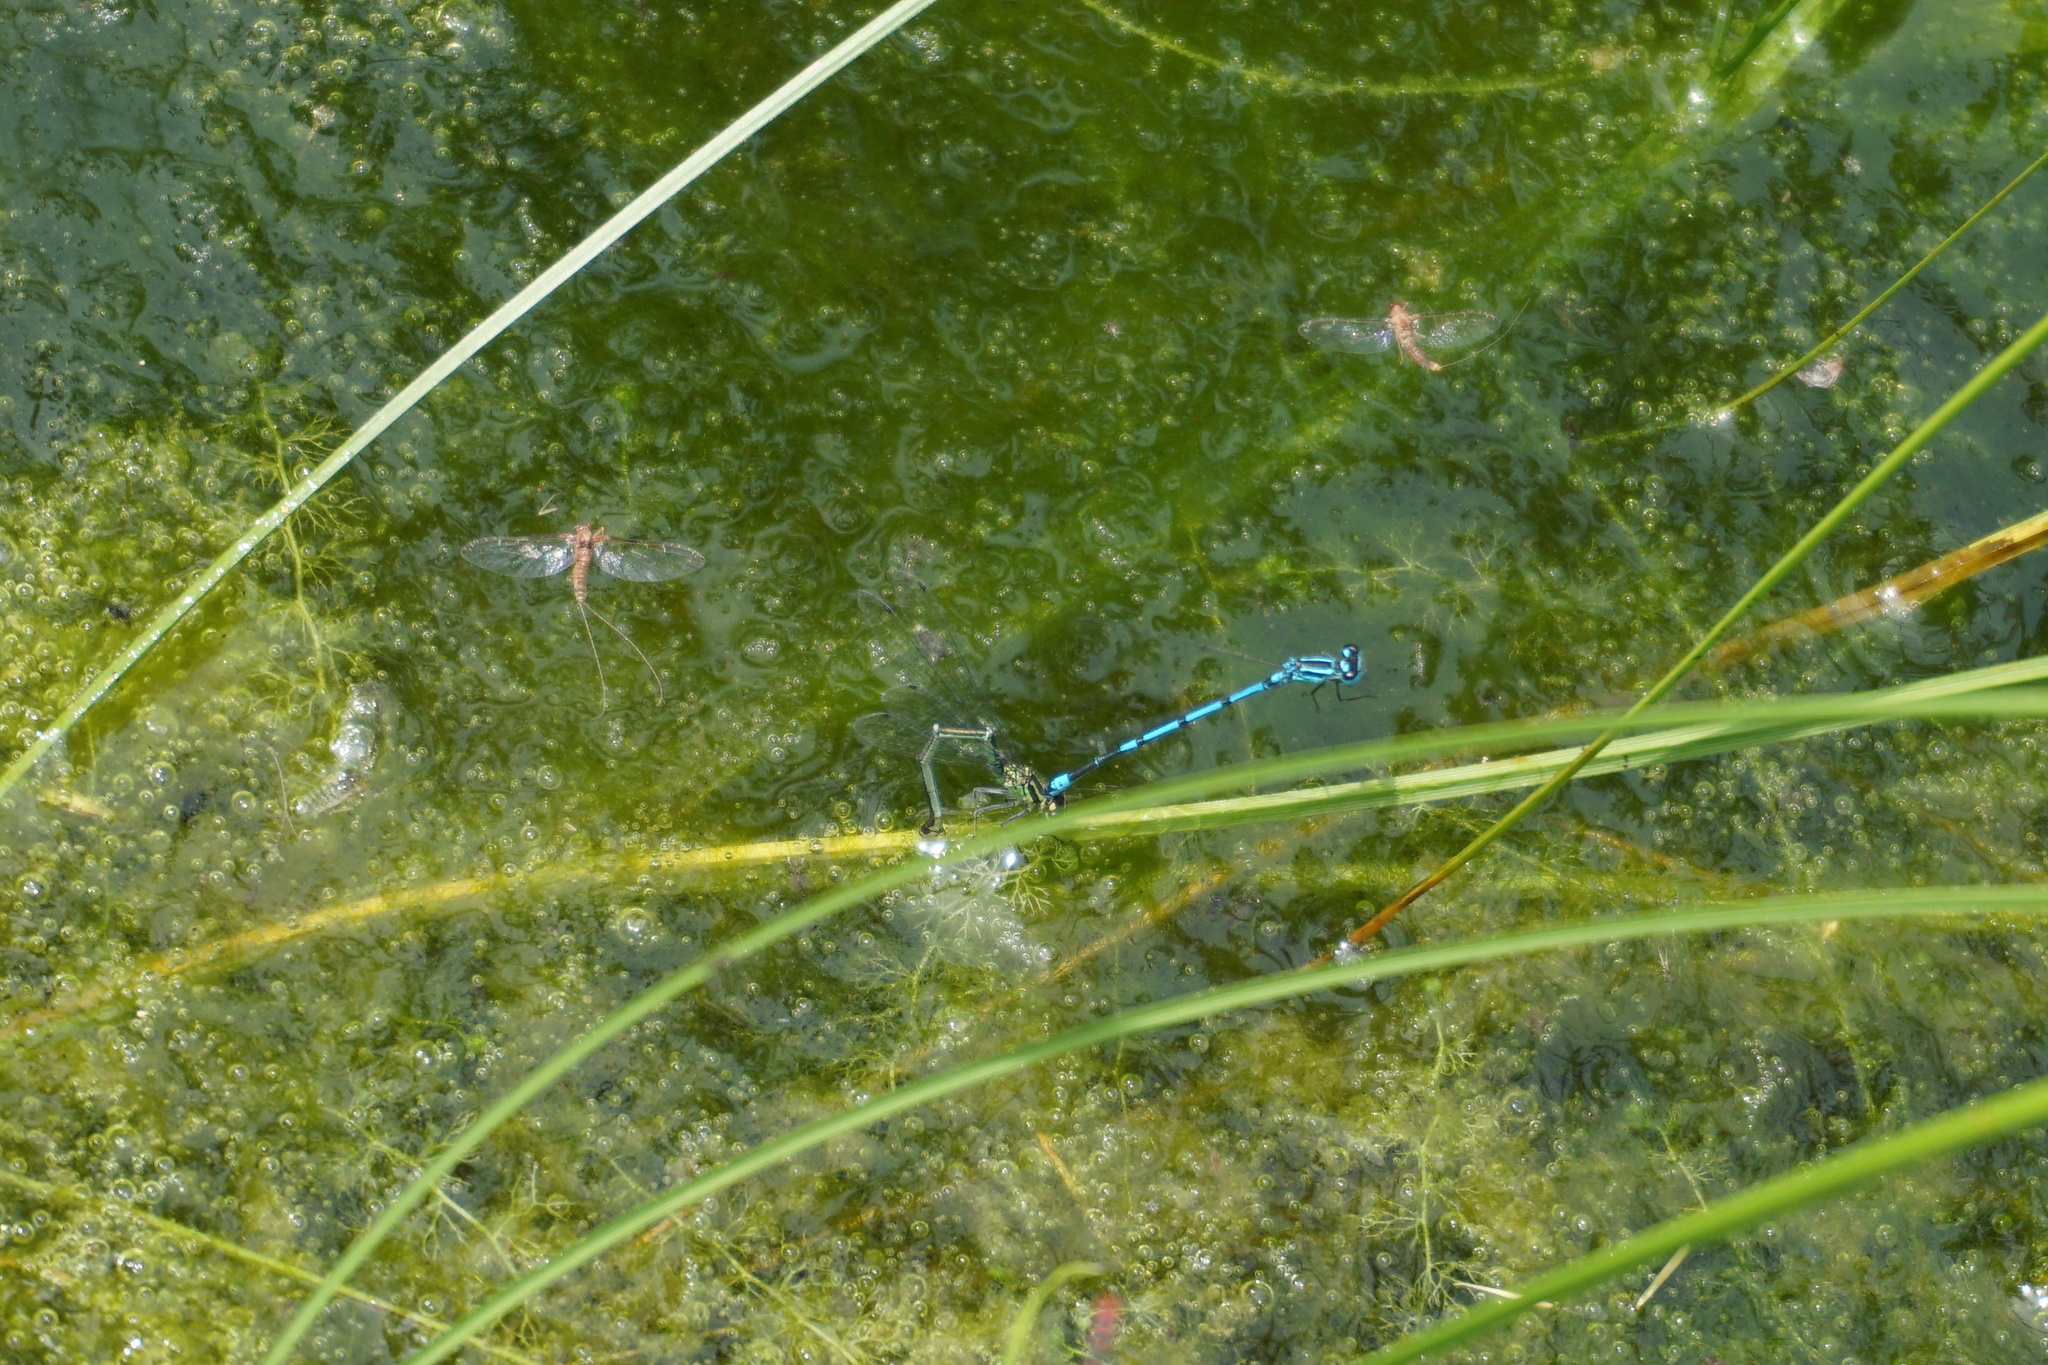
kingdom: Animalia
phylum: Arthropoda
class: Insecta
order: Odonata
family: Coenagrionidae
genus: Coenagrion
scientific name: Coenagrion
